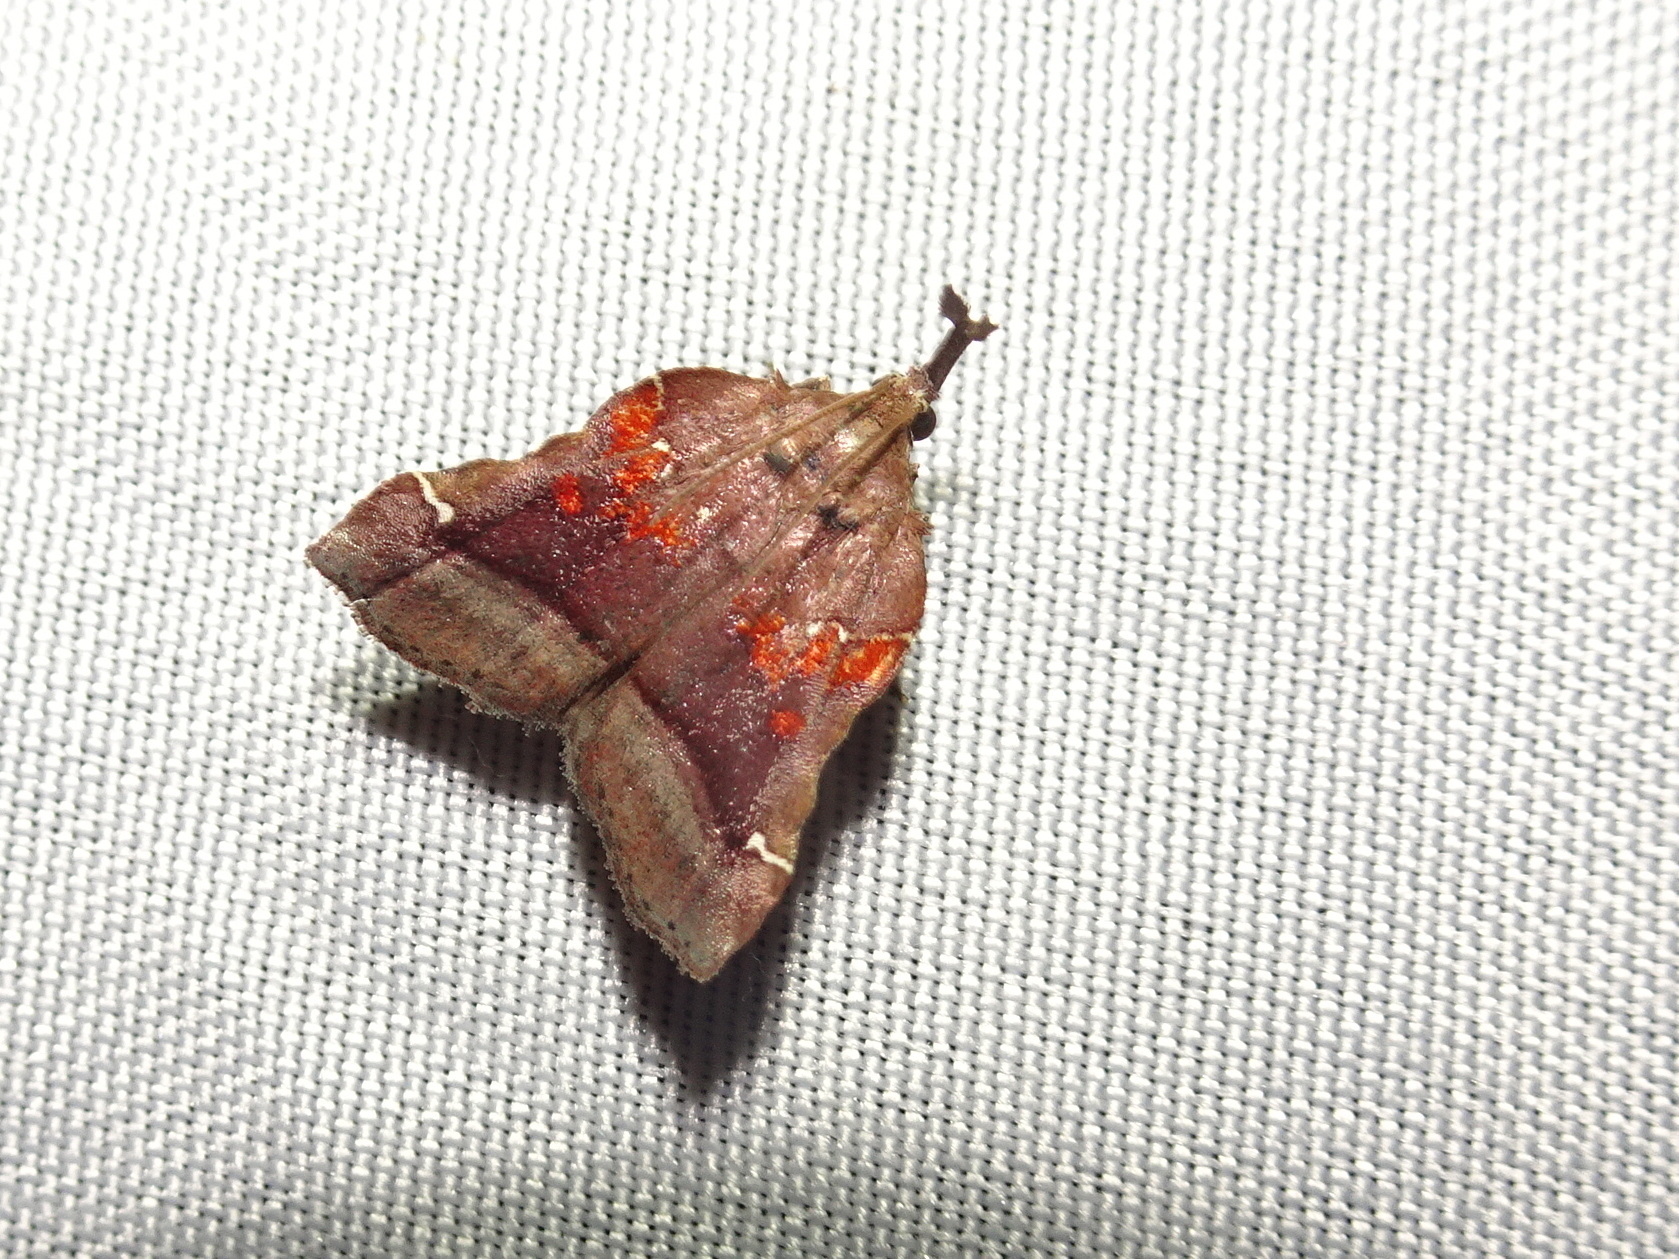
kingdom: Animalia
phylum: Arthropoda
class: Insecta
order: Lepidoptera
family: Pyralidae
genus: Clydonopteron
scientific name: Clydonopteron sacculana
